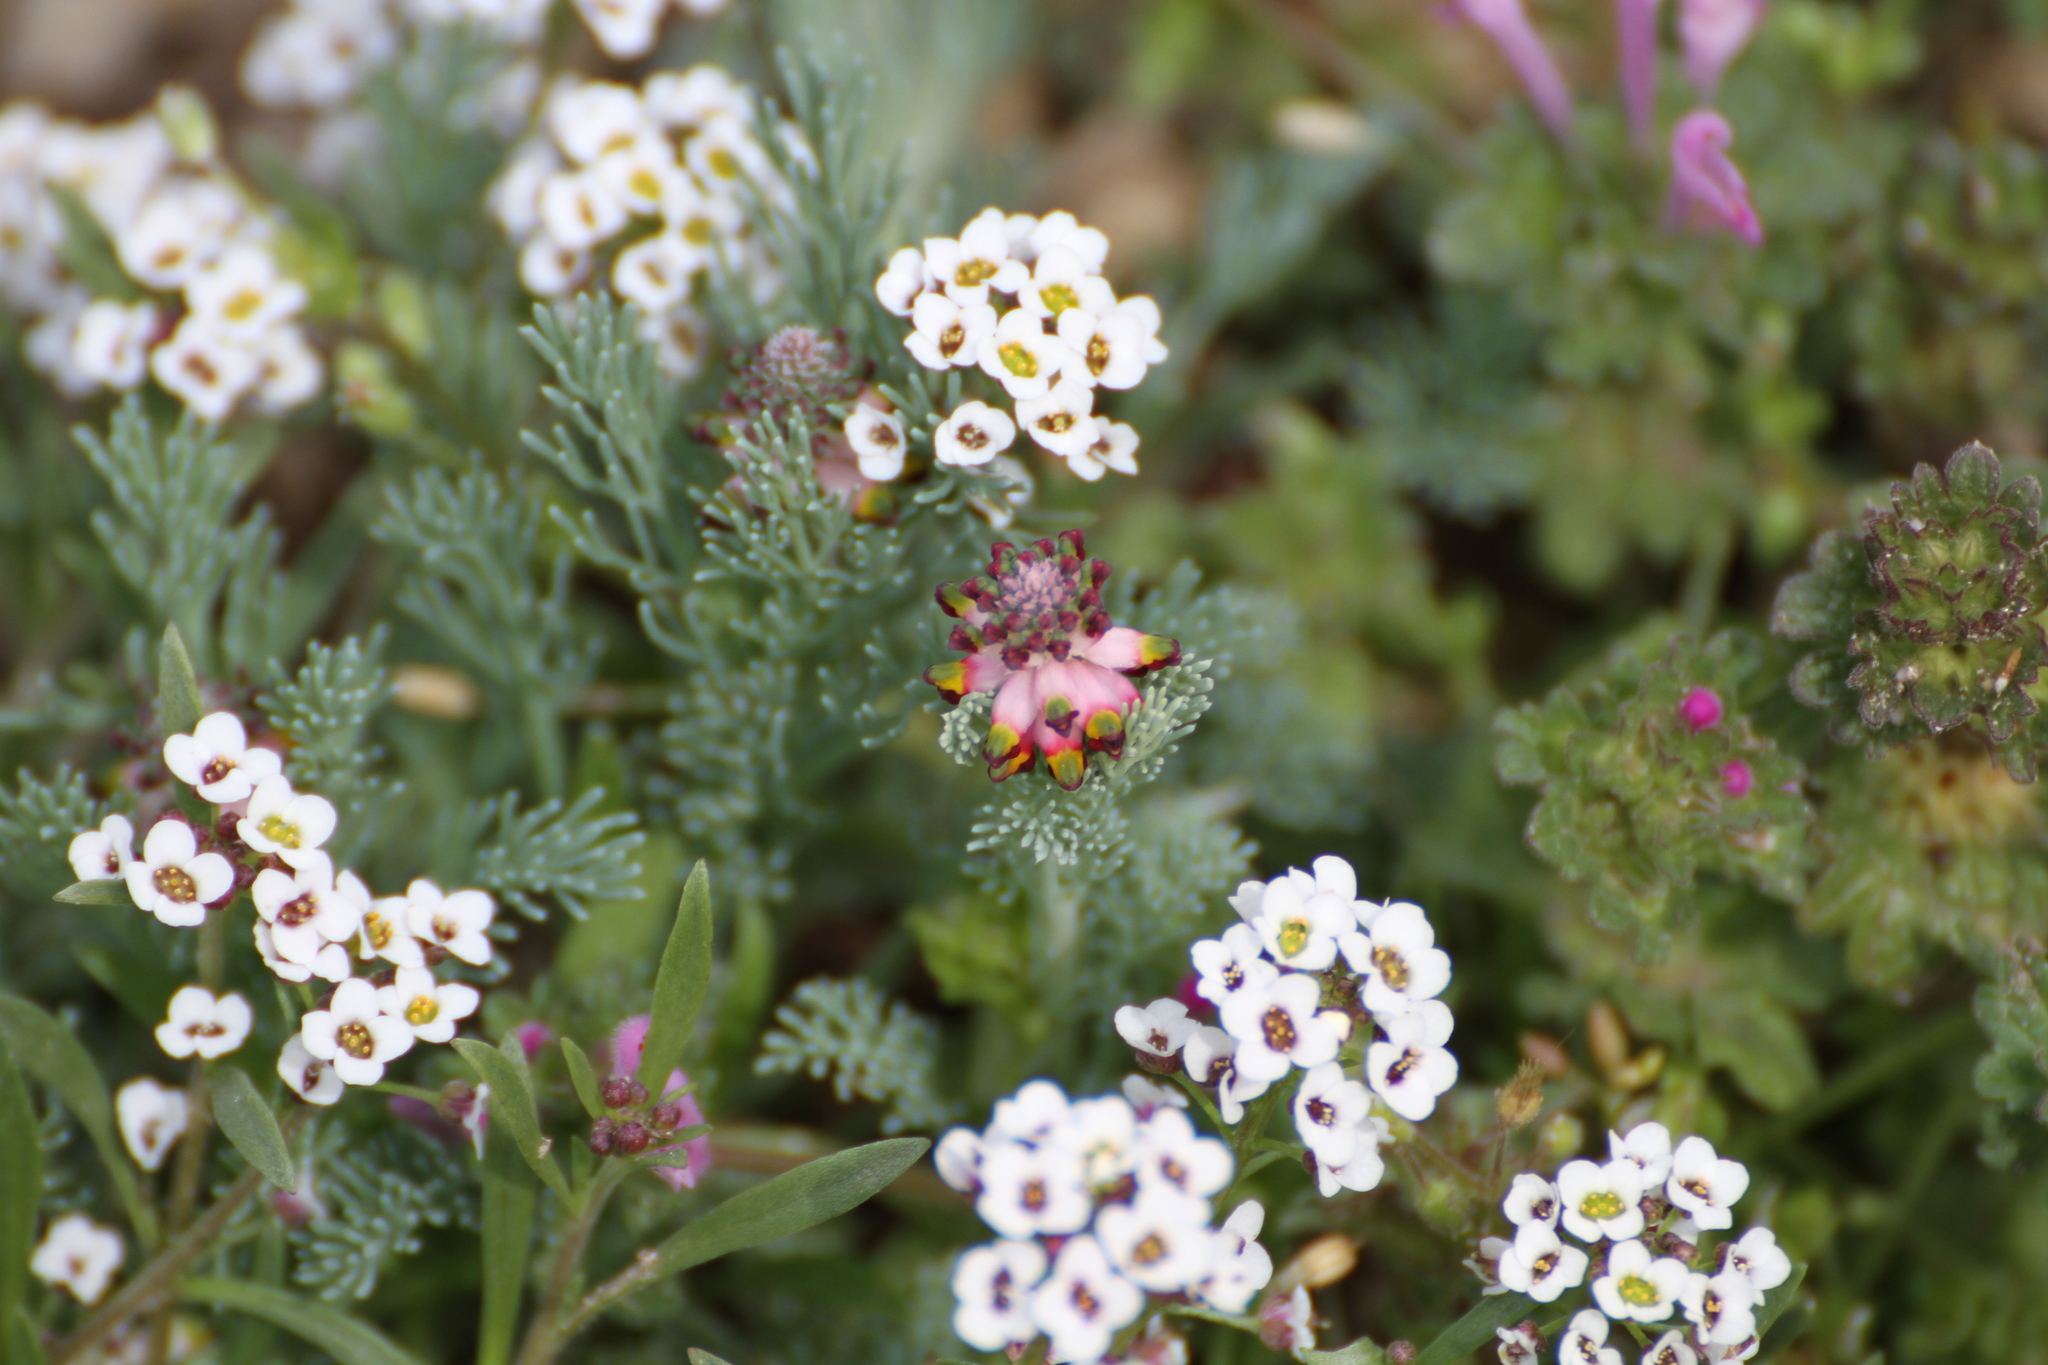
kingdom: Plantae
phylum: Tracheophyta
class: Magnoliopsida
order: Brassicales
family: Brassicaceae
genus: Lobularia
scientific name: Lobularia maritima
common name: Sweet alison
